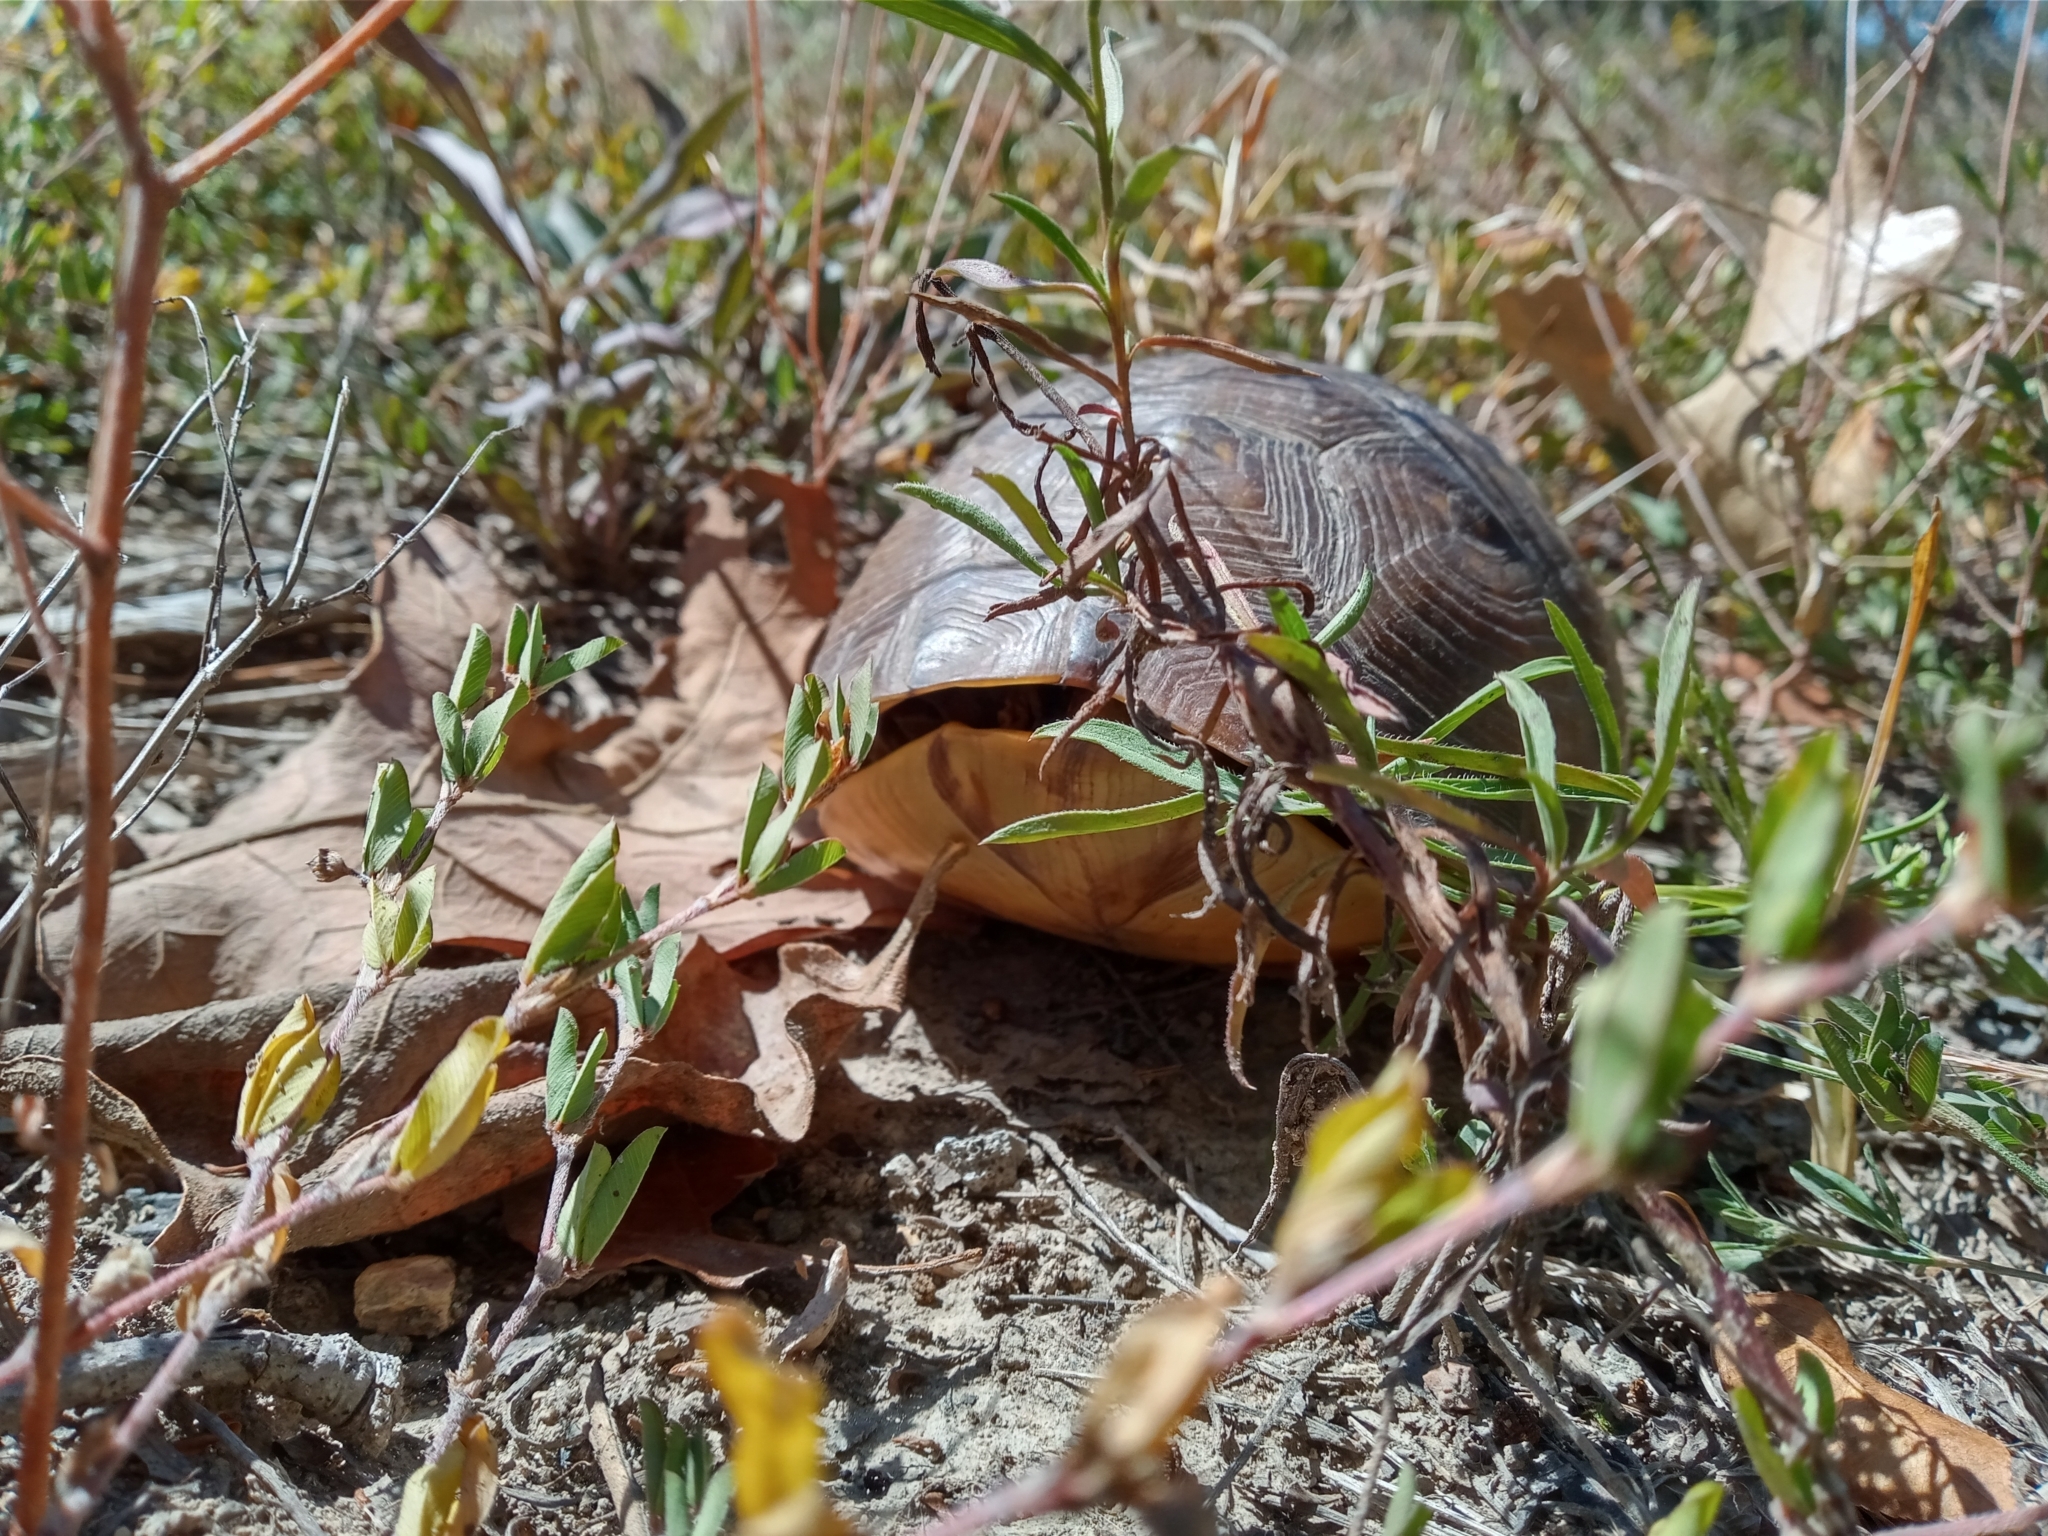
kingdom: Animalia
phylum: Chordata
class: Testudines
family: Emydidae
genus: Terrapene
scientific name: Terrapene carolina
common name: Common box turtle
